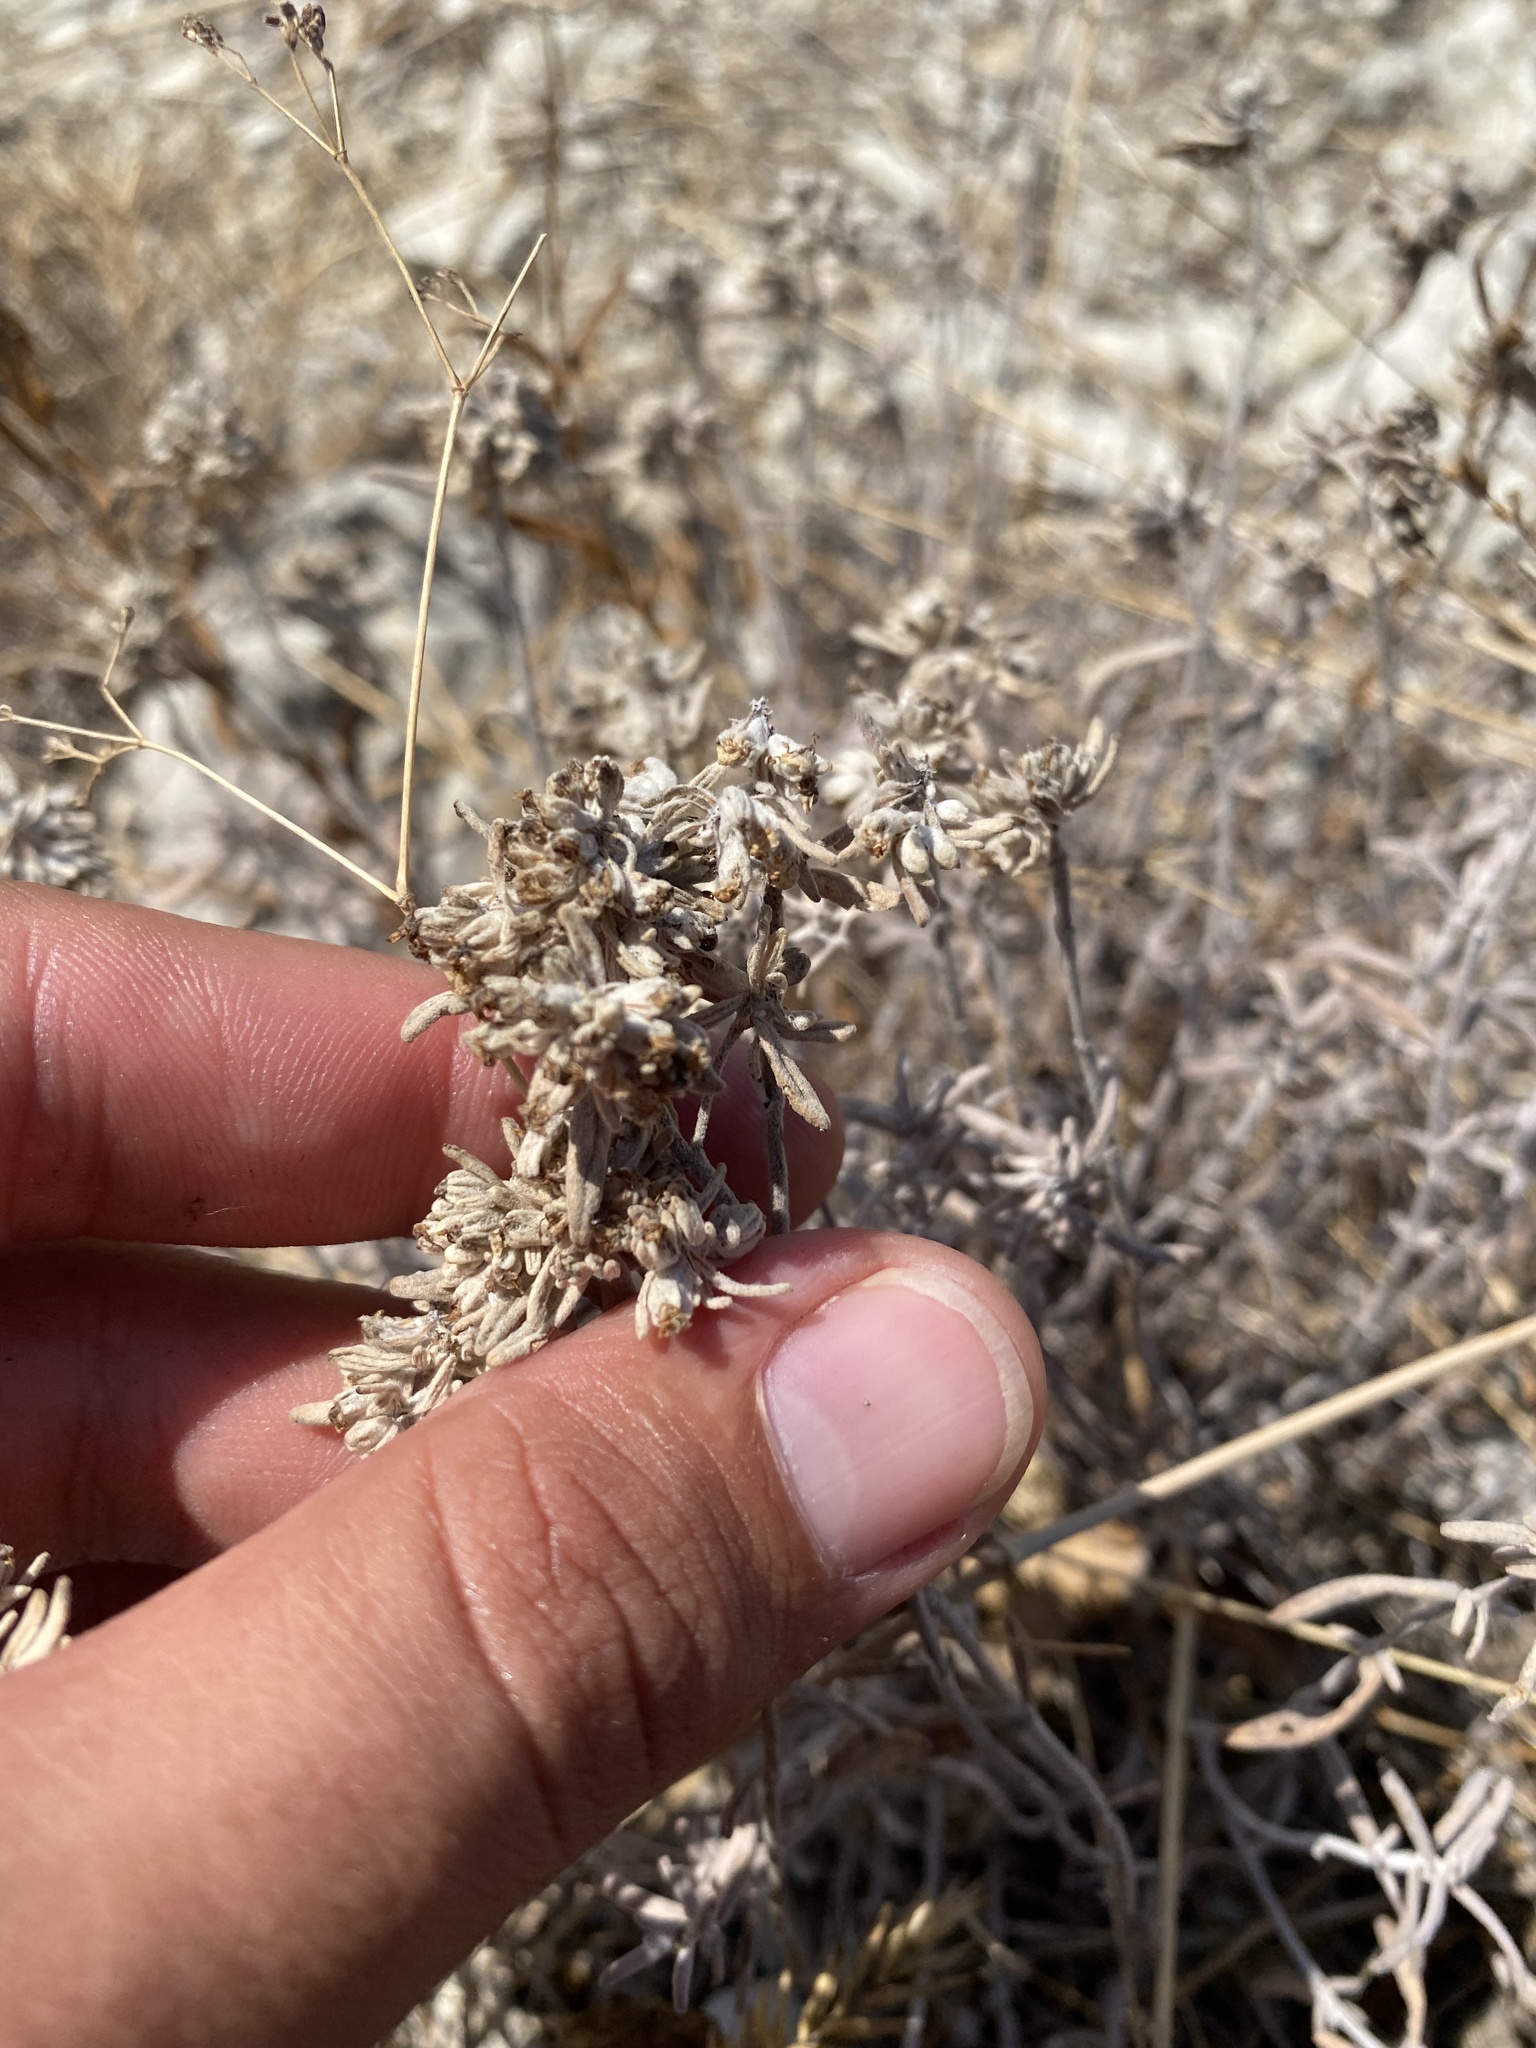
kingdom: Plantae
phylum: Tracheophyta
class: Magnoliopsida
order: Lamiales
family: Lamiaceae
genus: Teucrium
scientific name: Teucrium polium
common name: Poley
